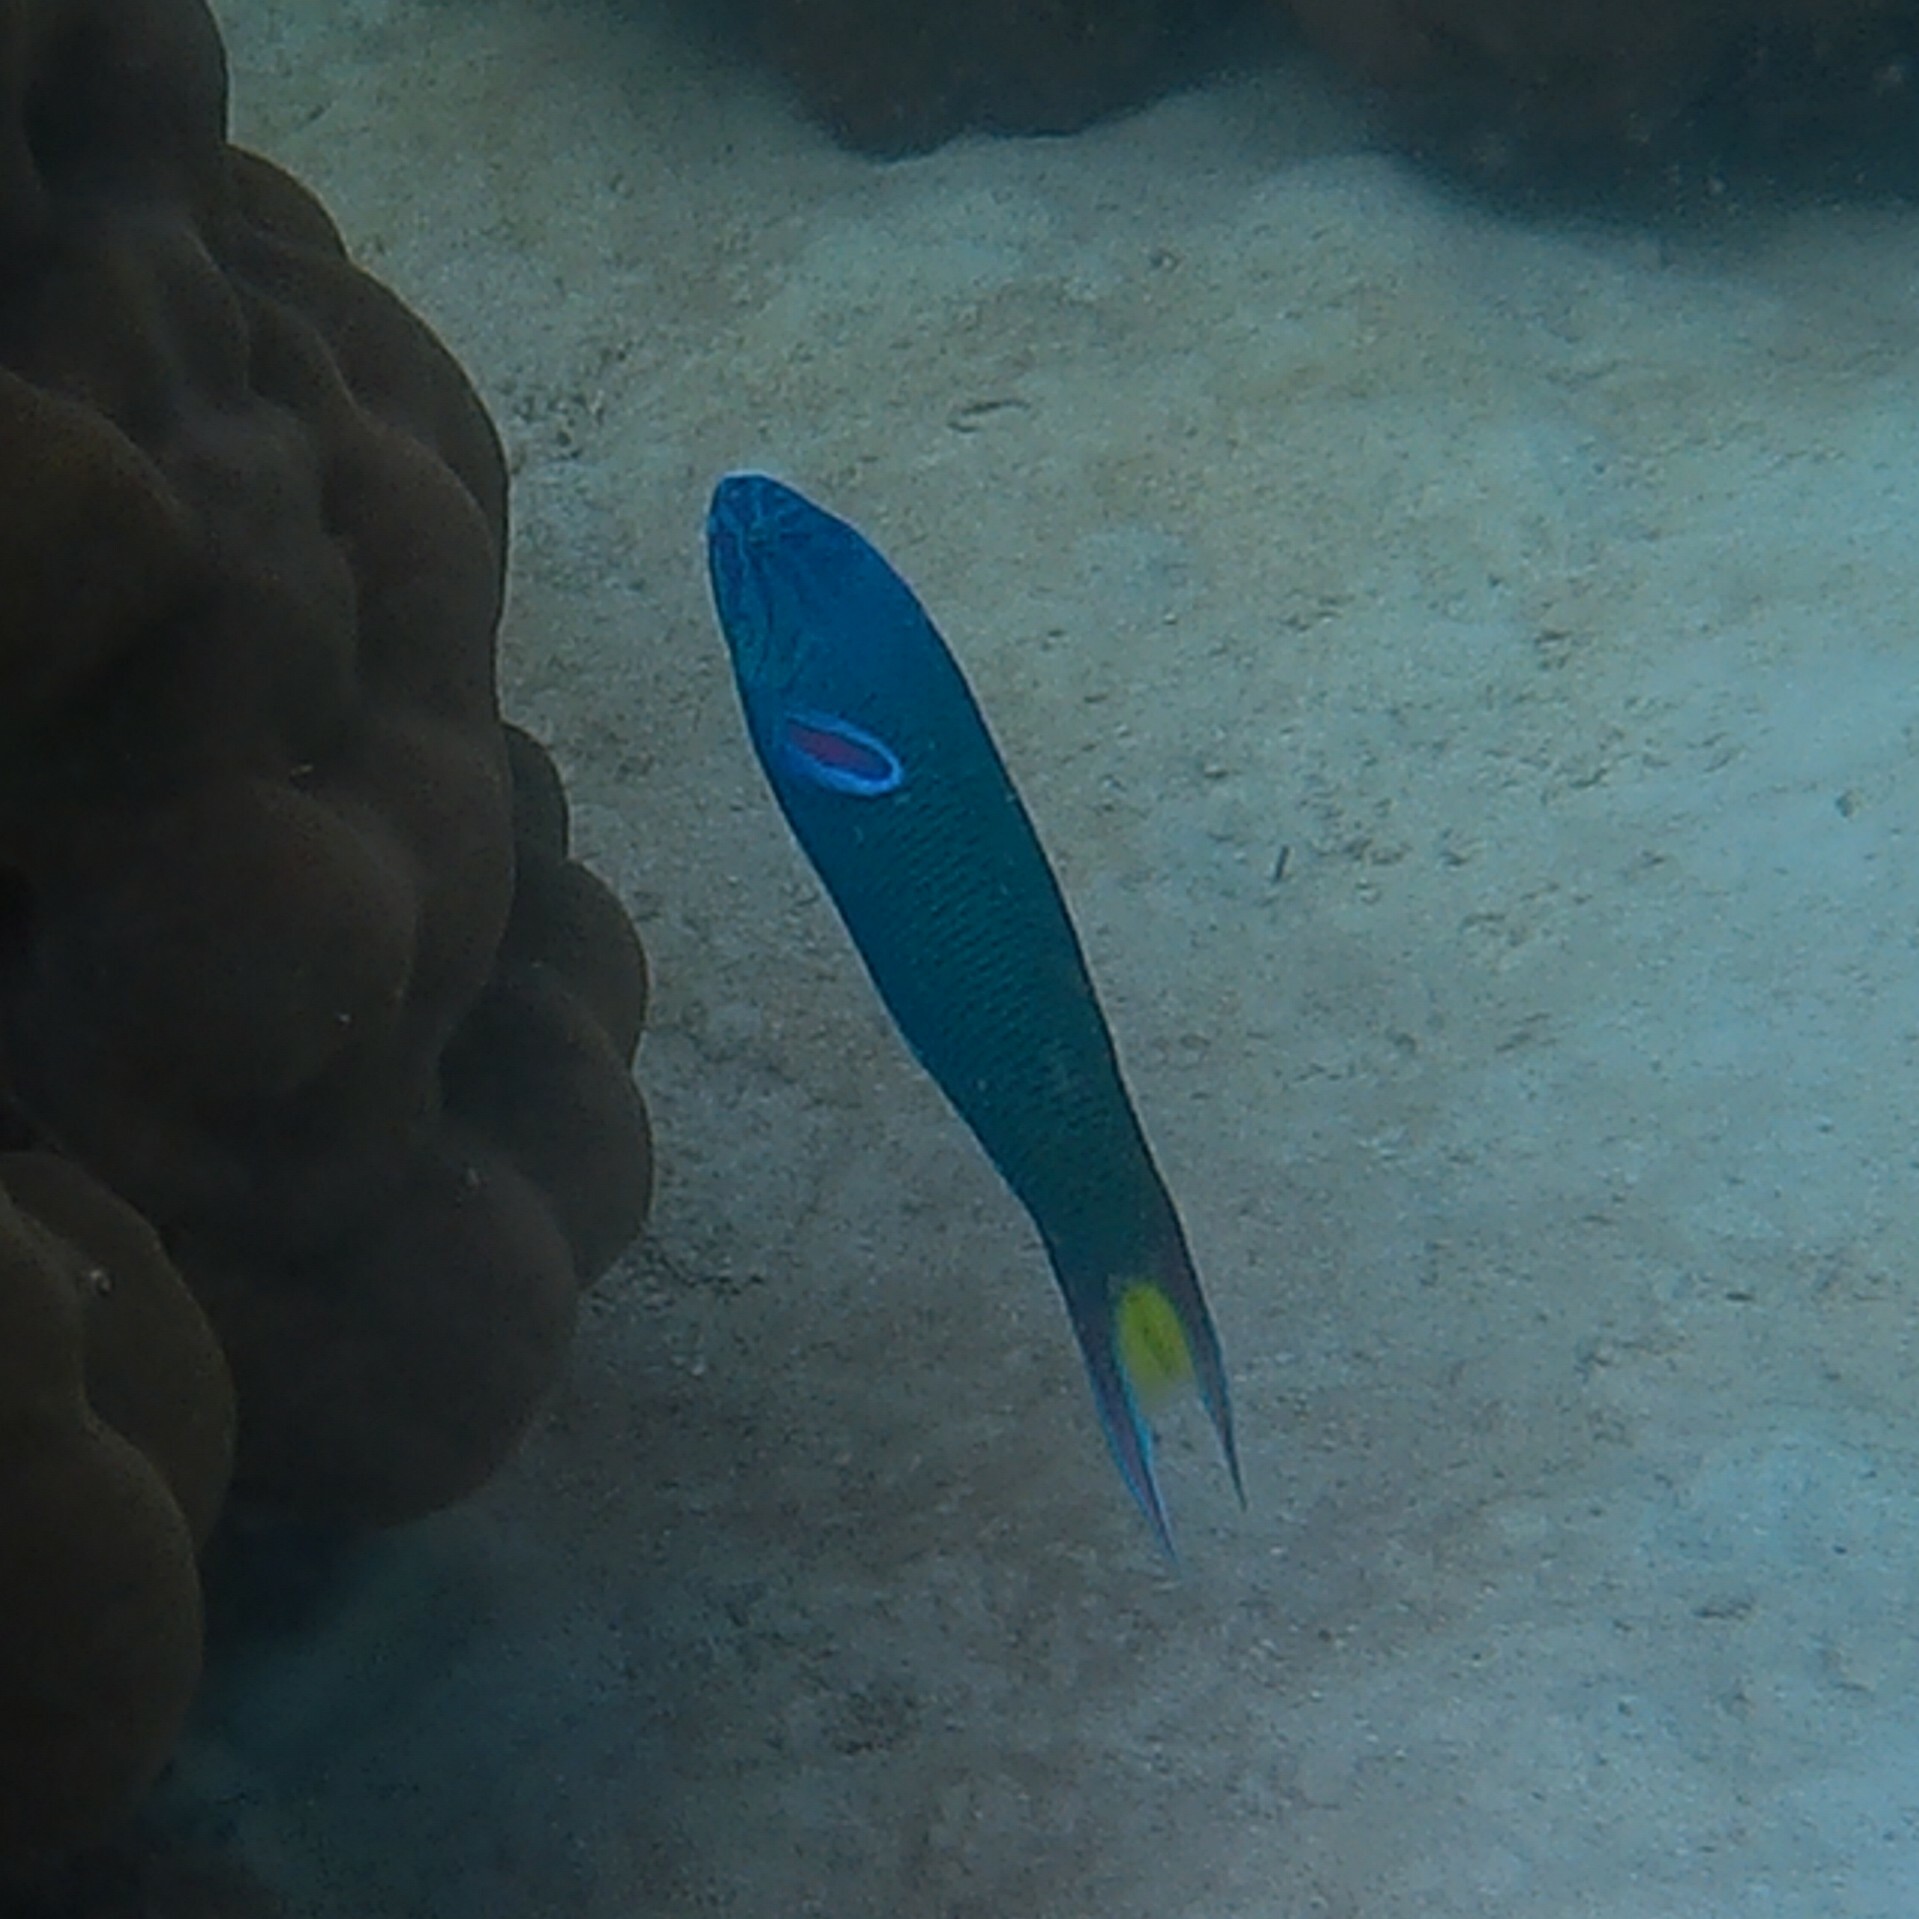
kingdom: Animalia
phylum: Chordata
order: Perciformes
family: Labridae
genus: Thalassoma
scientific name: Thalassoma lunare
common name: Blue wrasse
